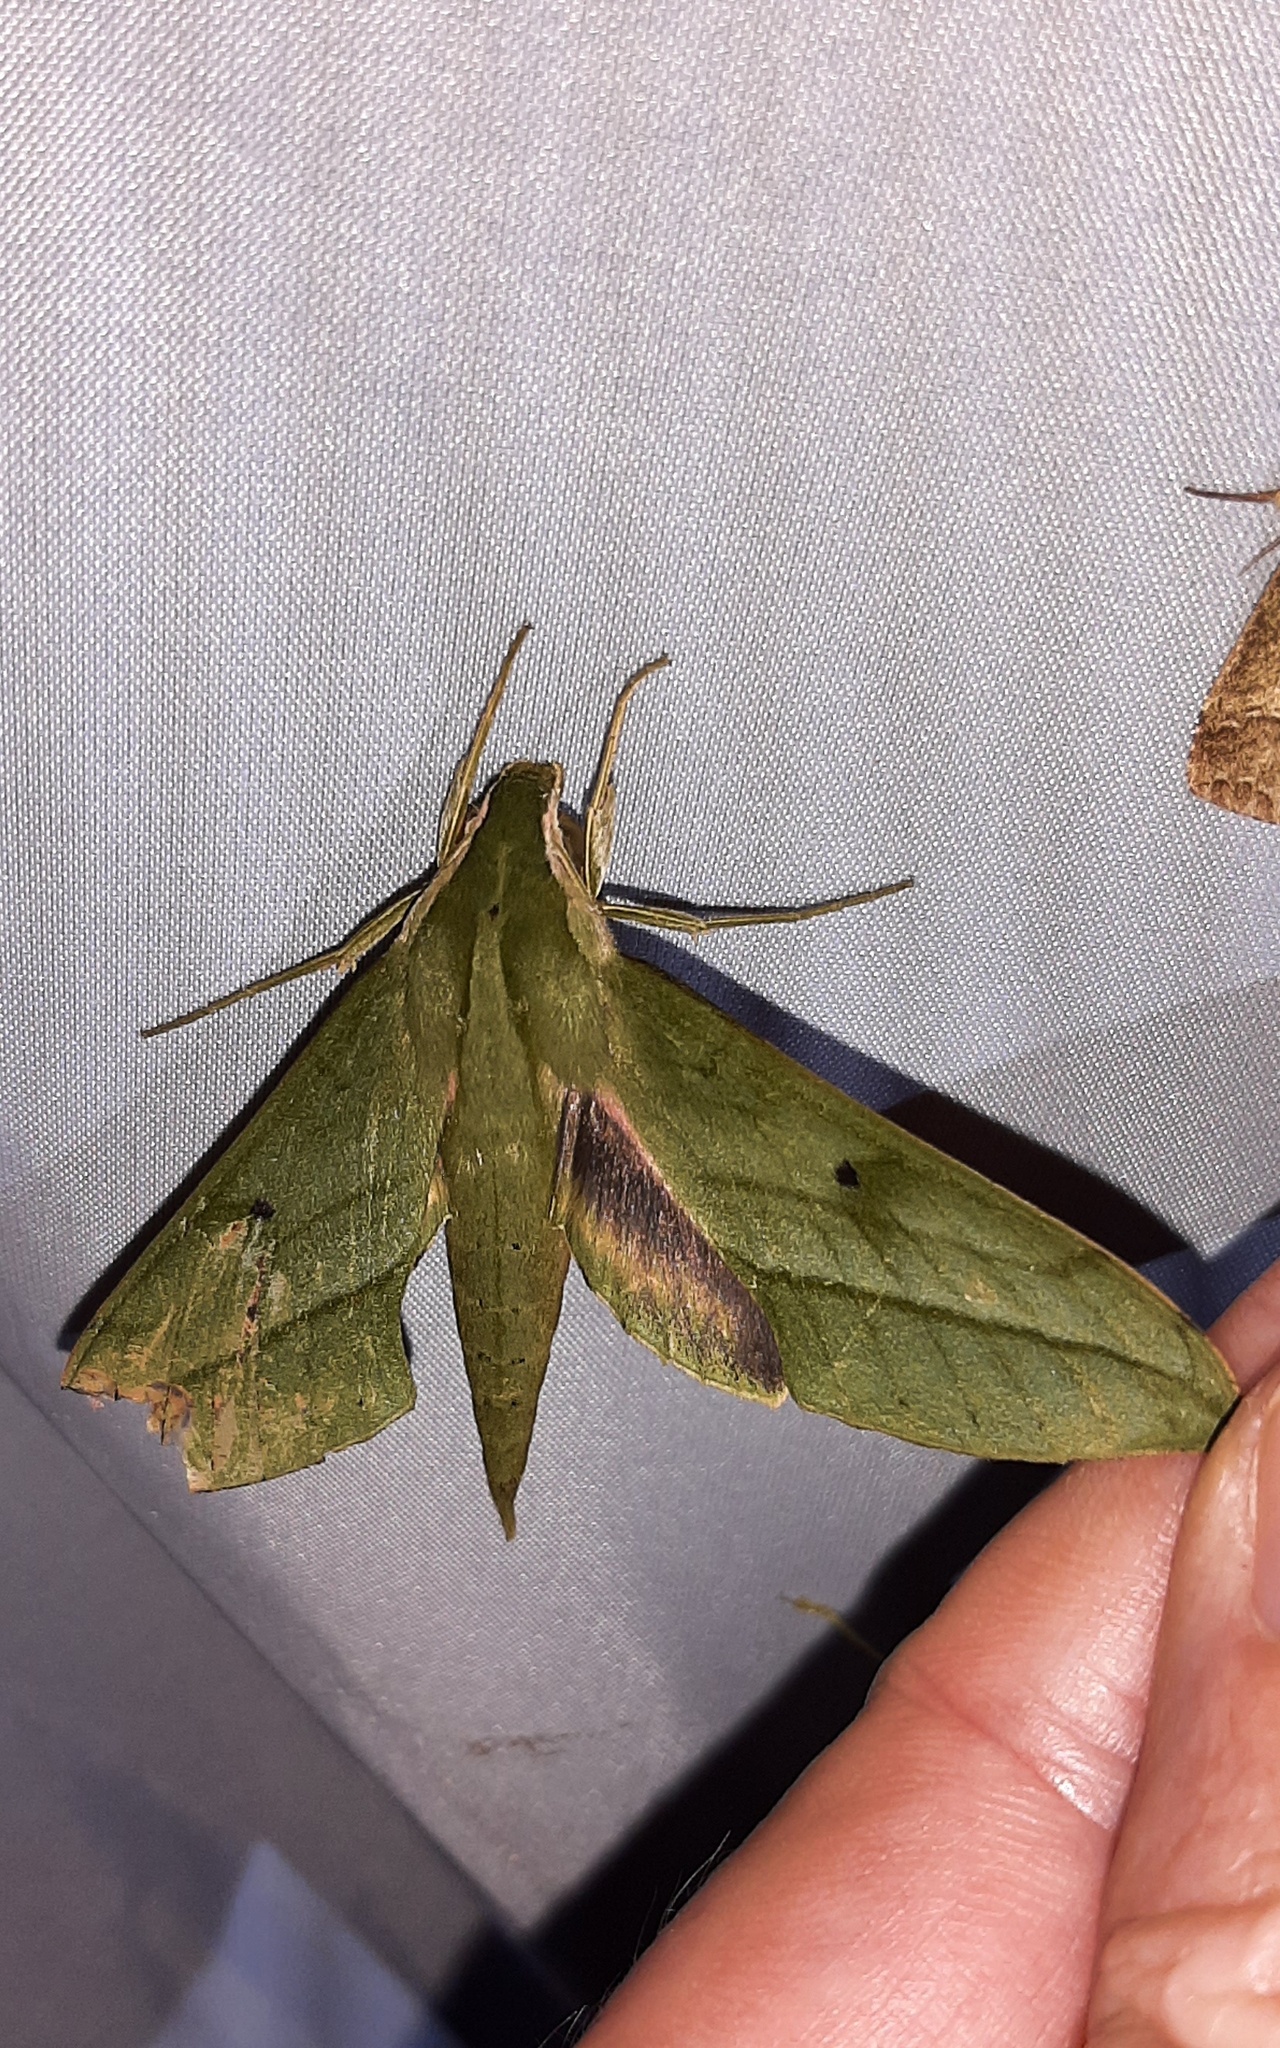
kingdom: Animalia
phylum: Arthropoda
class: Insecta
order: Lepidoptera
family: Sphingidae
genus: Xylophanes
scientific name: Xylophanes fassli
